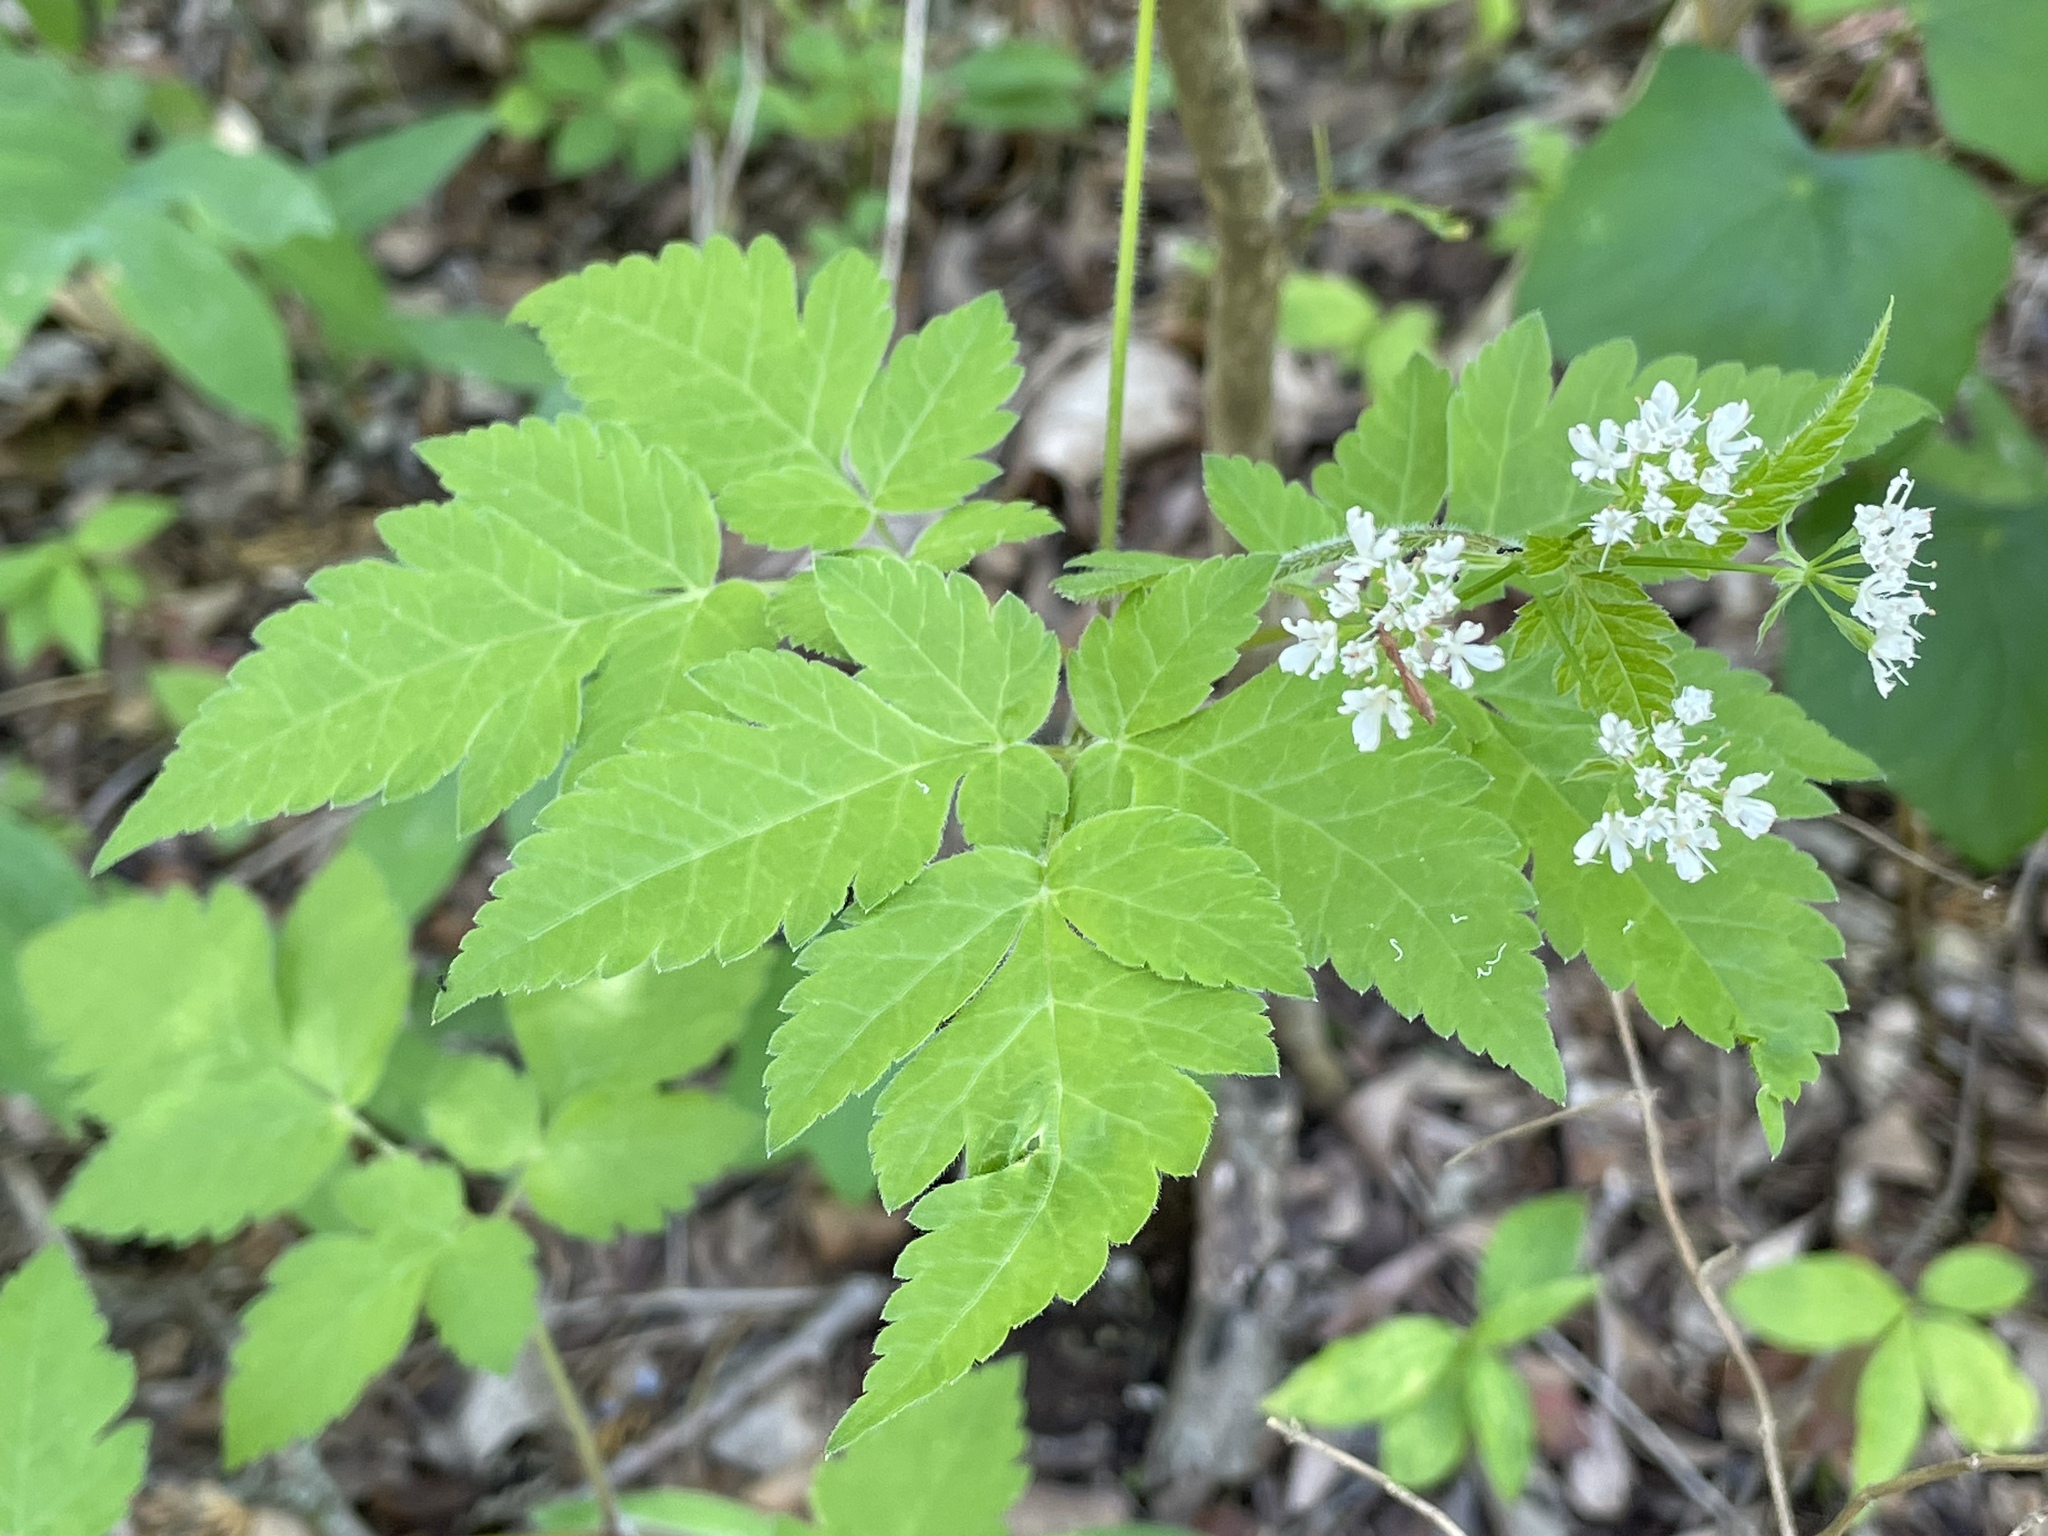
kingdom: Plantae
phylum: Tracheophyta
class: Magnoliopsida
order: Apiales
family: Apiaceae
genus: Osmorhiza
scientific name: Osmorhiza longistylis
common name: Smooth sweet cicely
